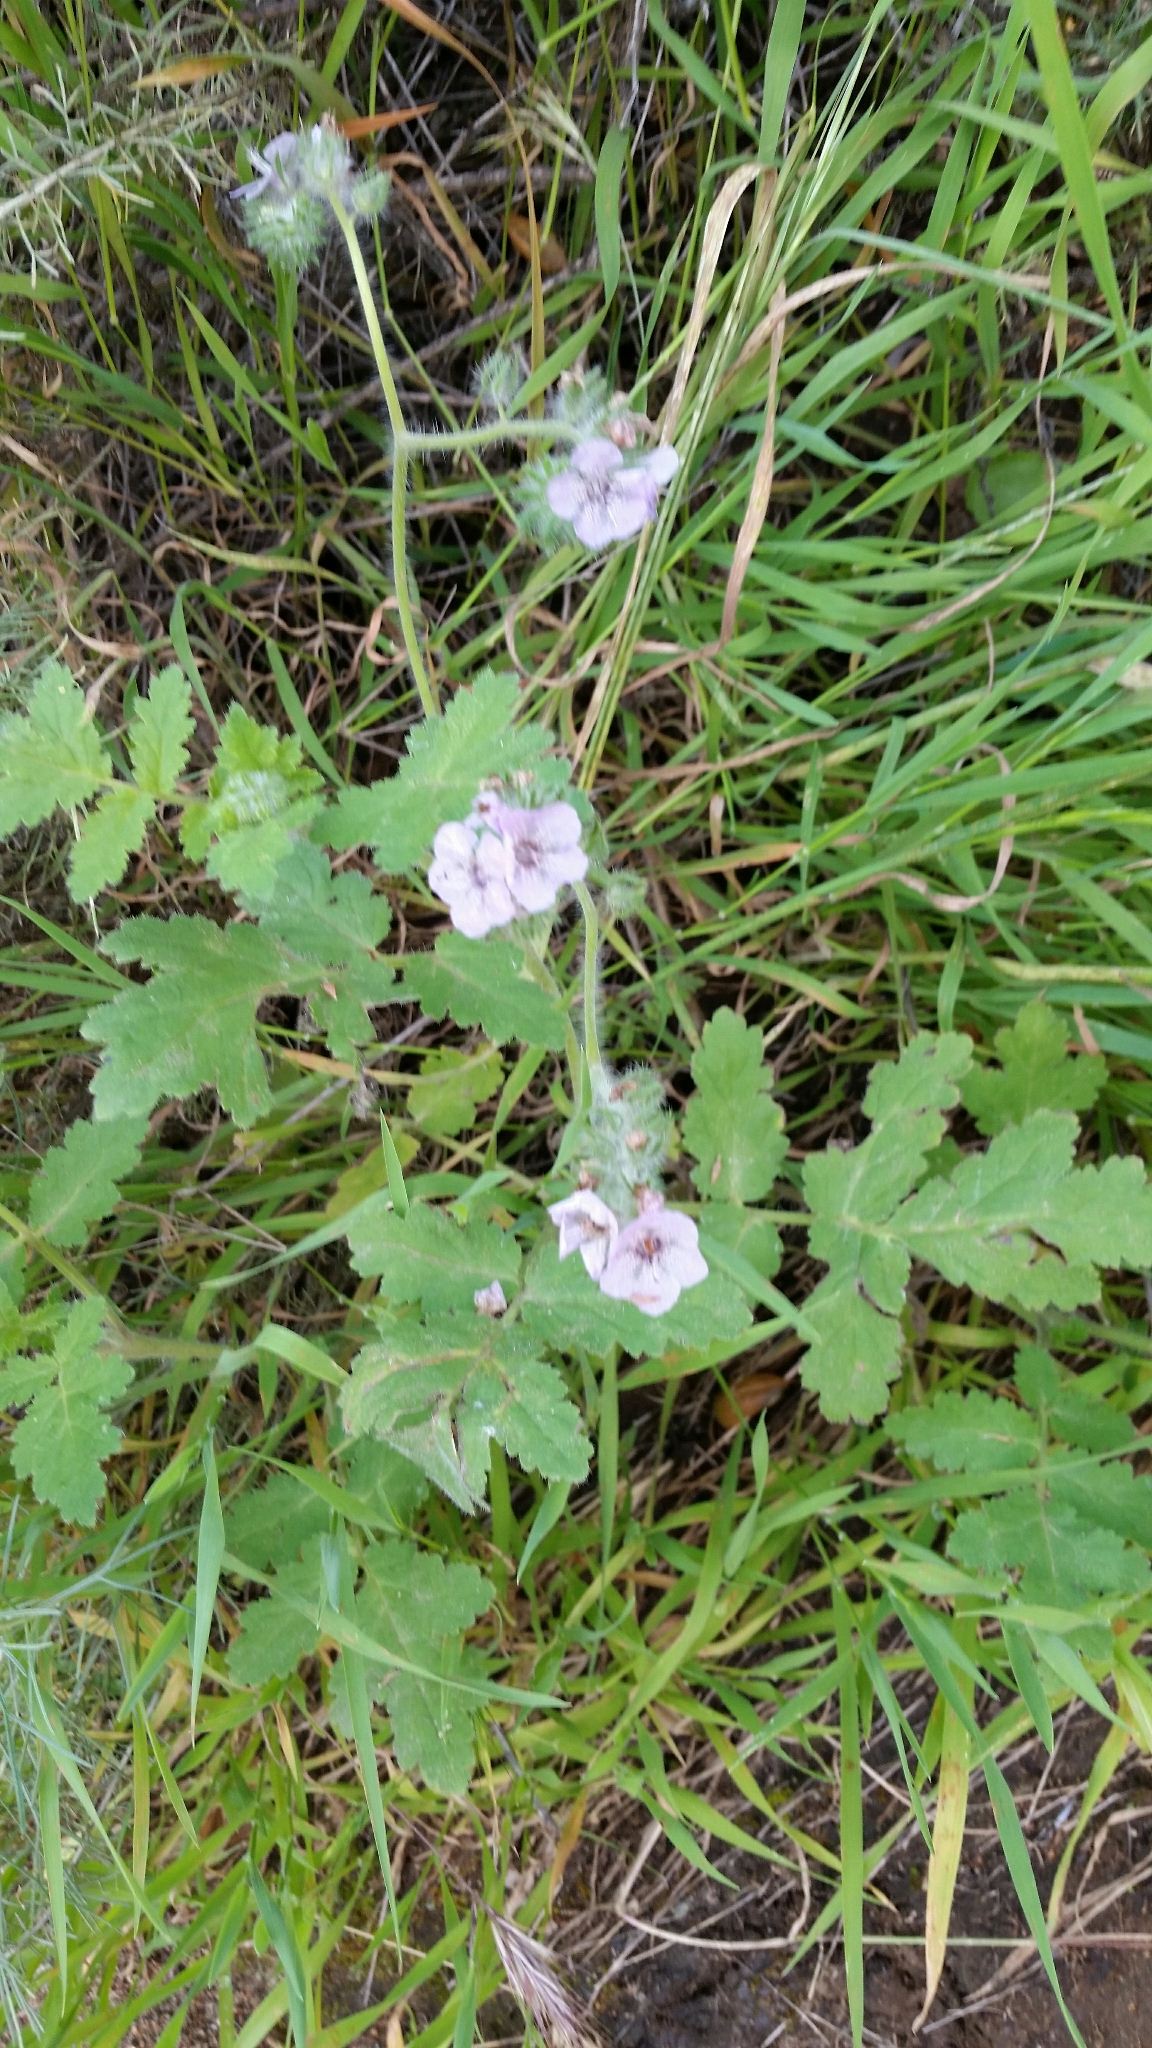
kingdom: Plantae
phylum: Tracheophyta
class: Magnoliopsida
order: Boraginales
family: Hydrophyllaceae
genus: Phacelia
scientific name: Phacelia cicutaria
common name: Caterpillar phacelia
